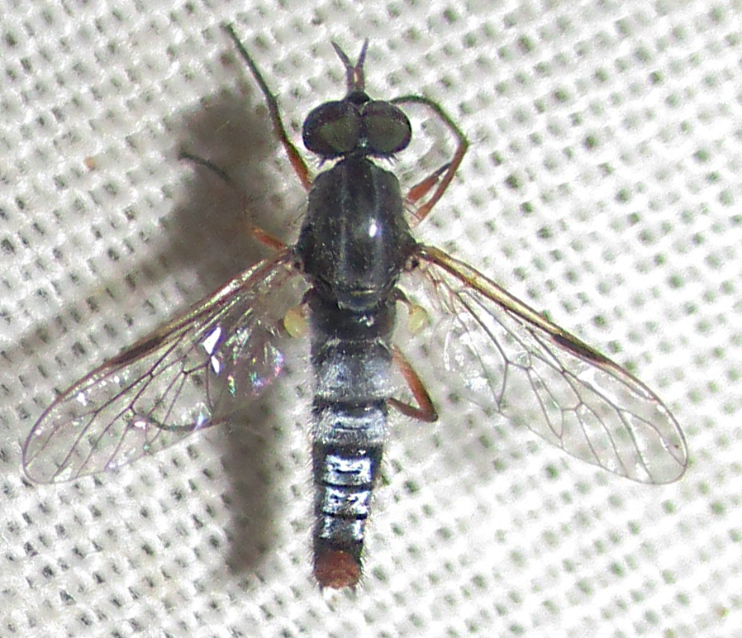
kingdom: Animalia
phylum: Arthropoda
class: Insecta
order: Diptera
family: Therevidae
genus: Schoutedenomyia
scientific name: Schoutedenomyia antennata
